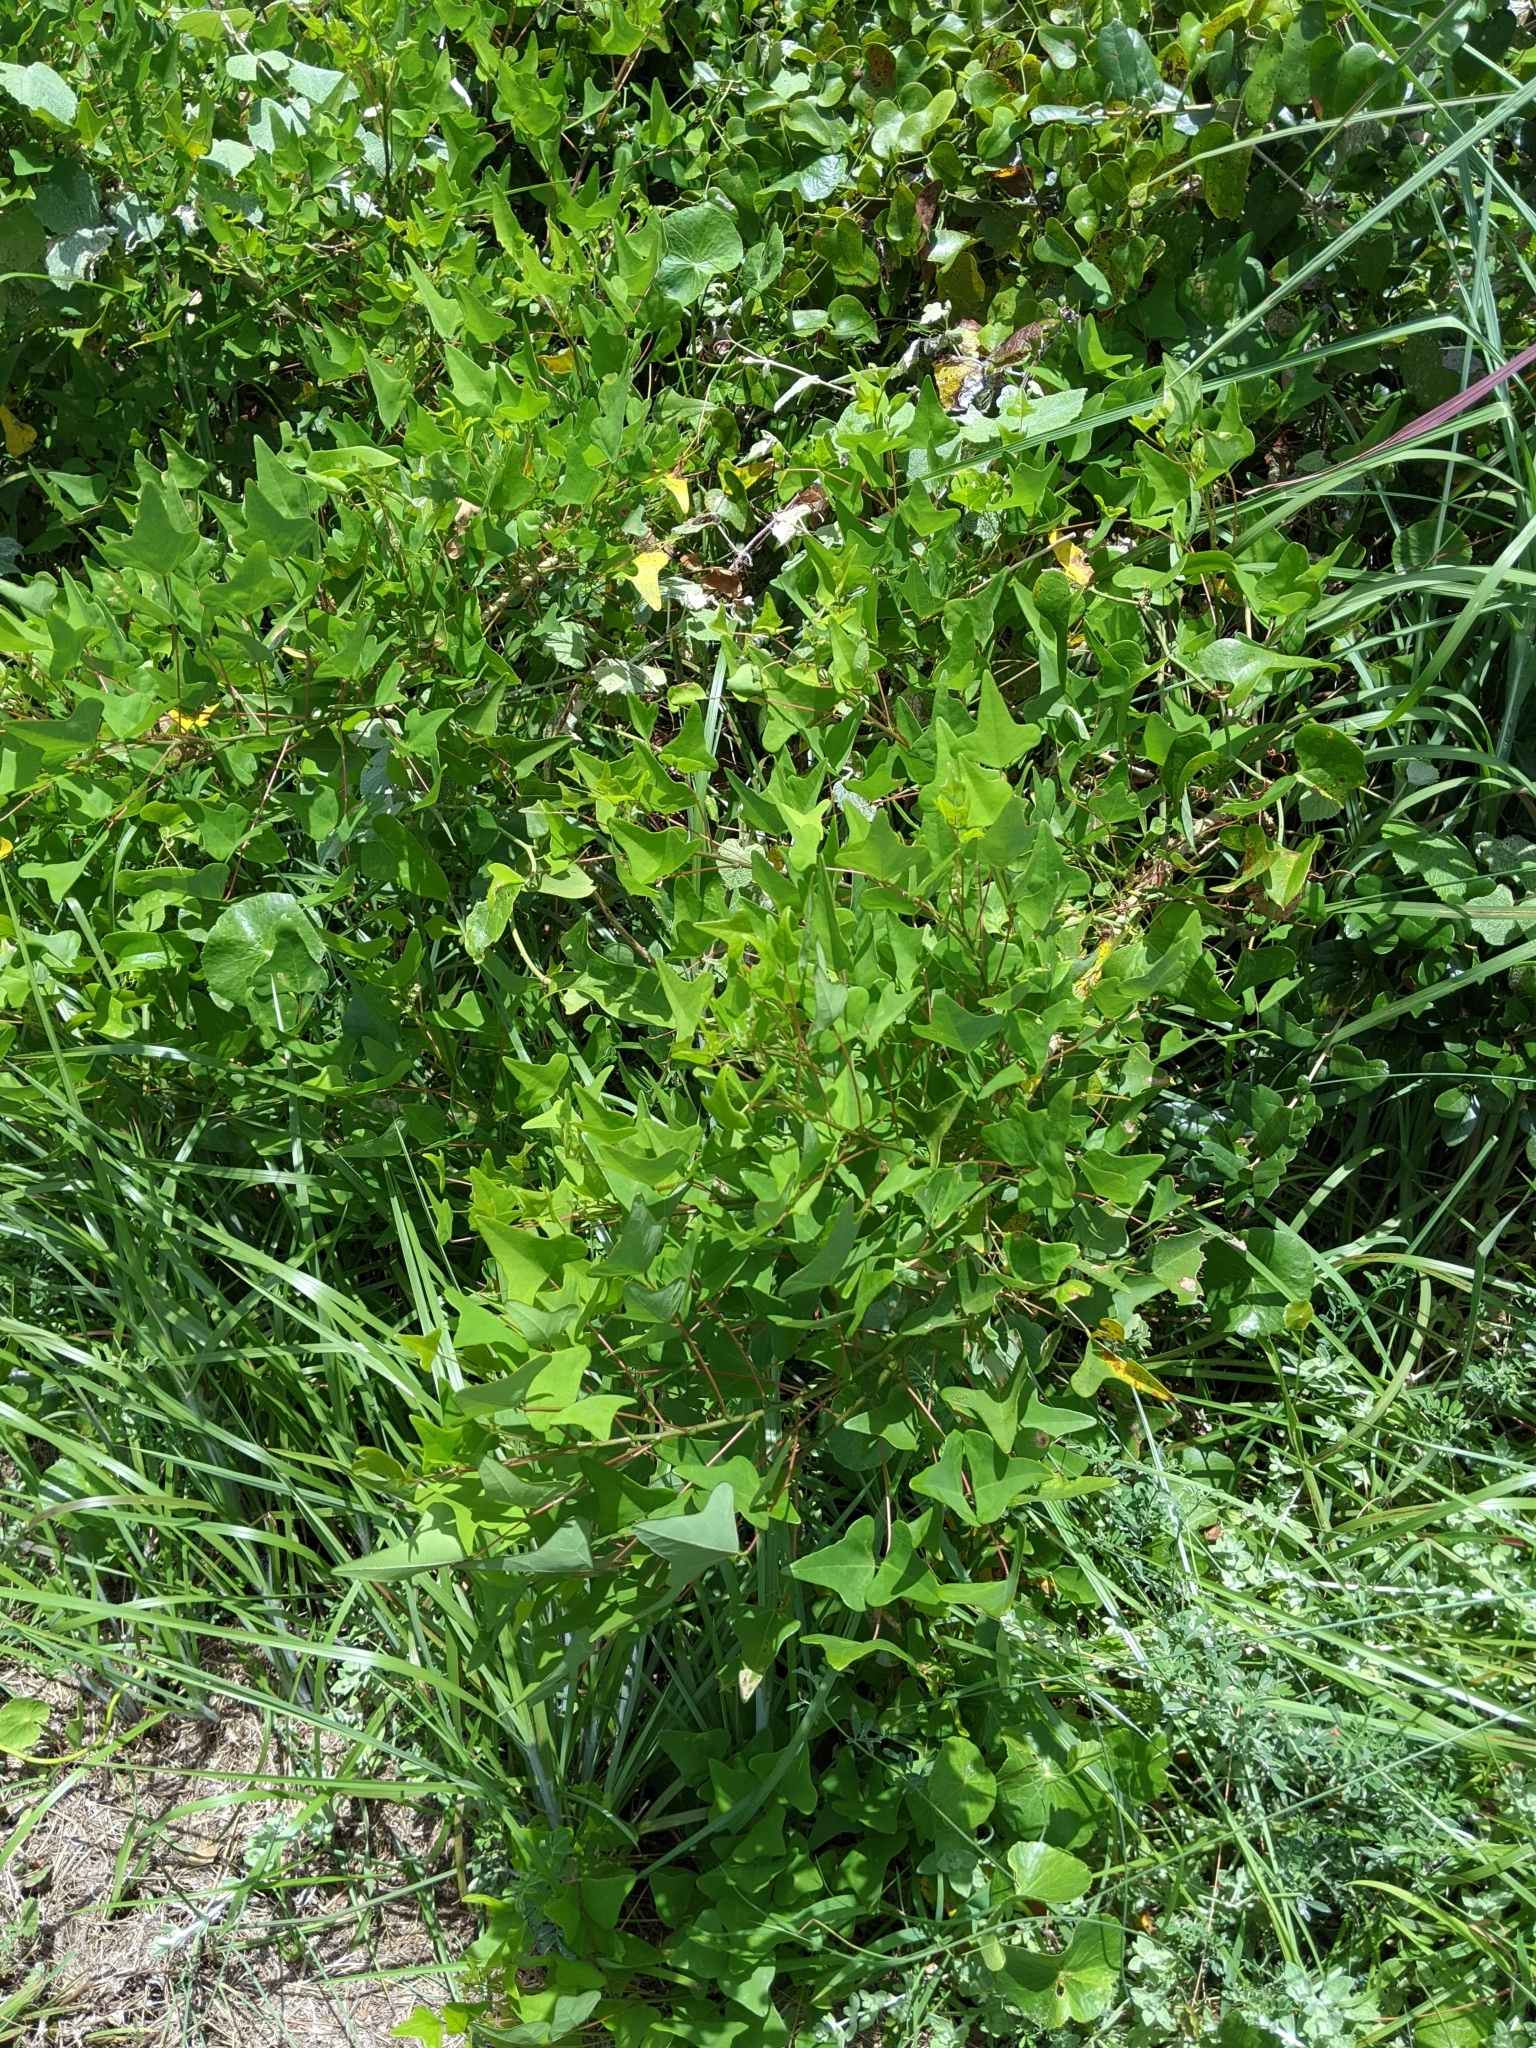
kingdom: Plantae
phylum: Tracheophyta
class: Magnoliopsida
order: Fabales
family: Fabaceae
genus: Erythrina
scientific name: Erythrina herbacea
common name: Coral-bean
